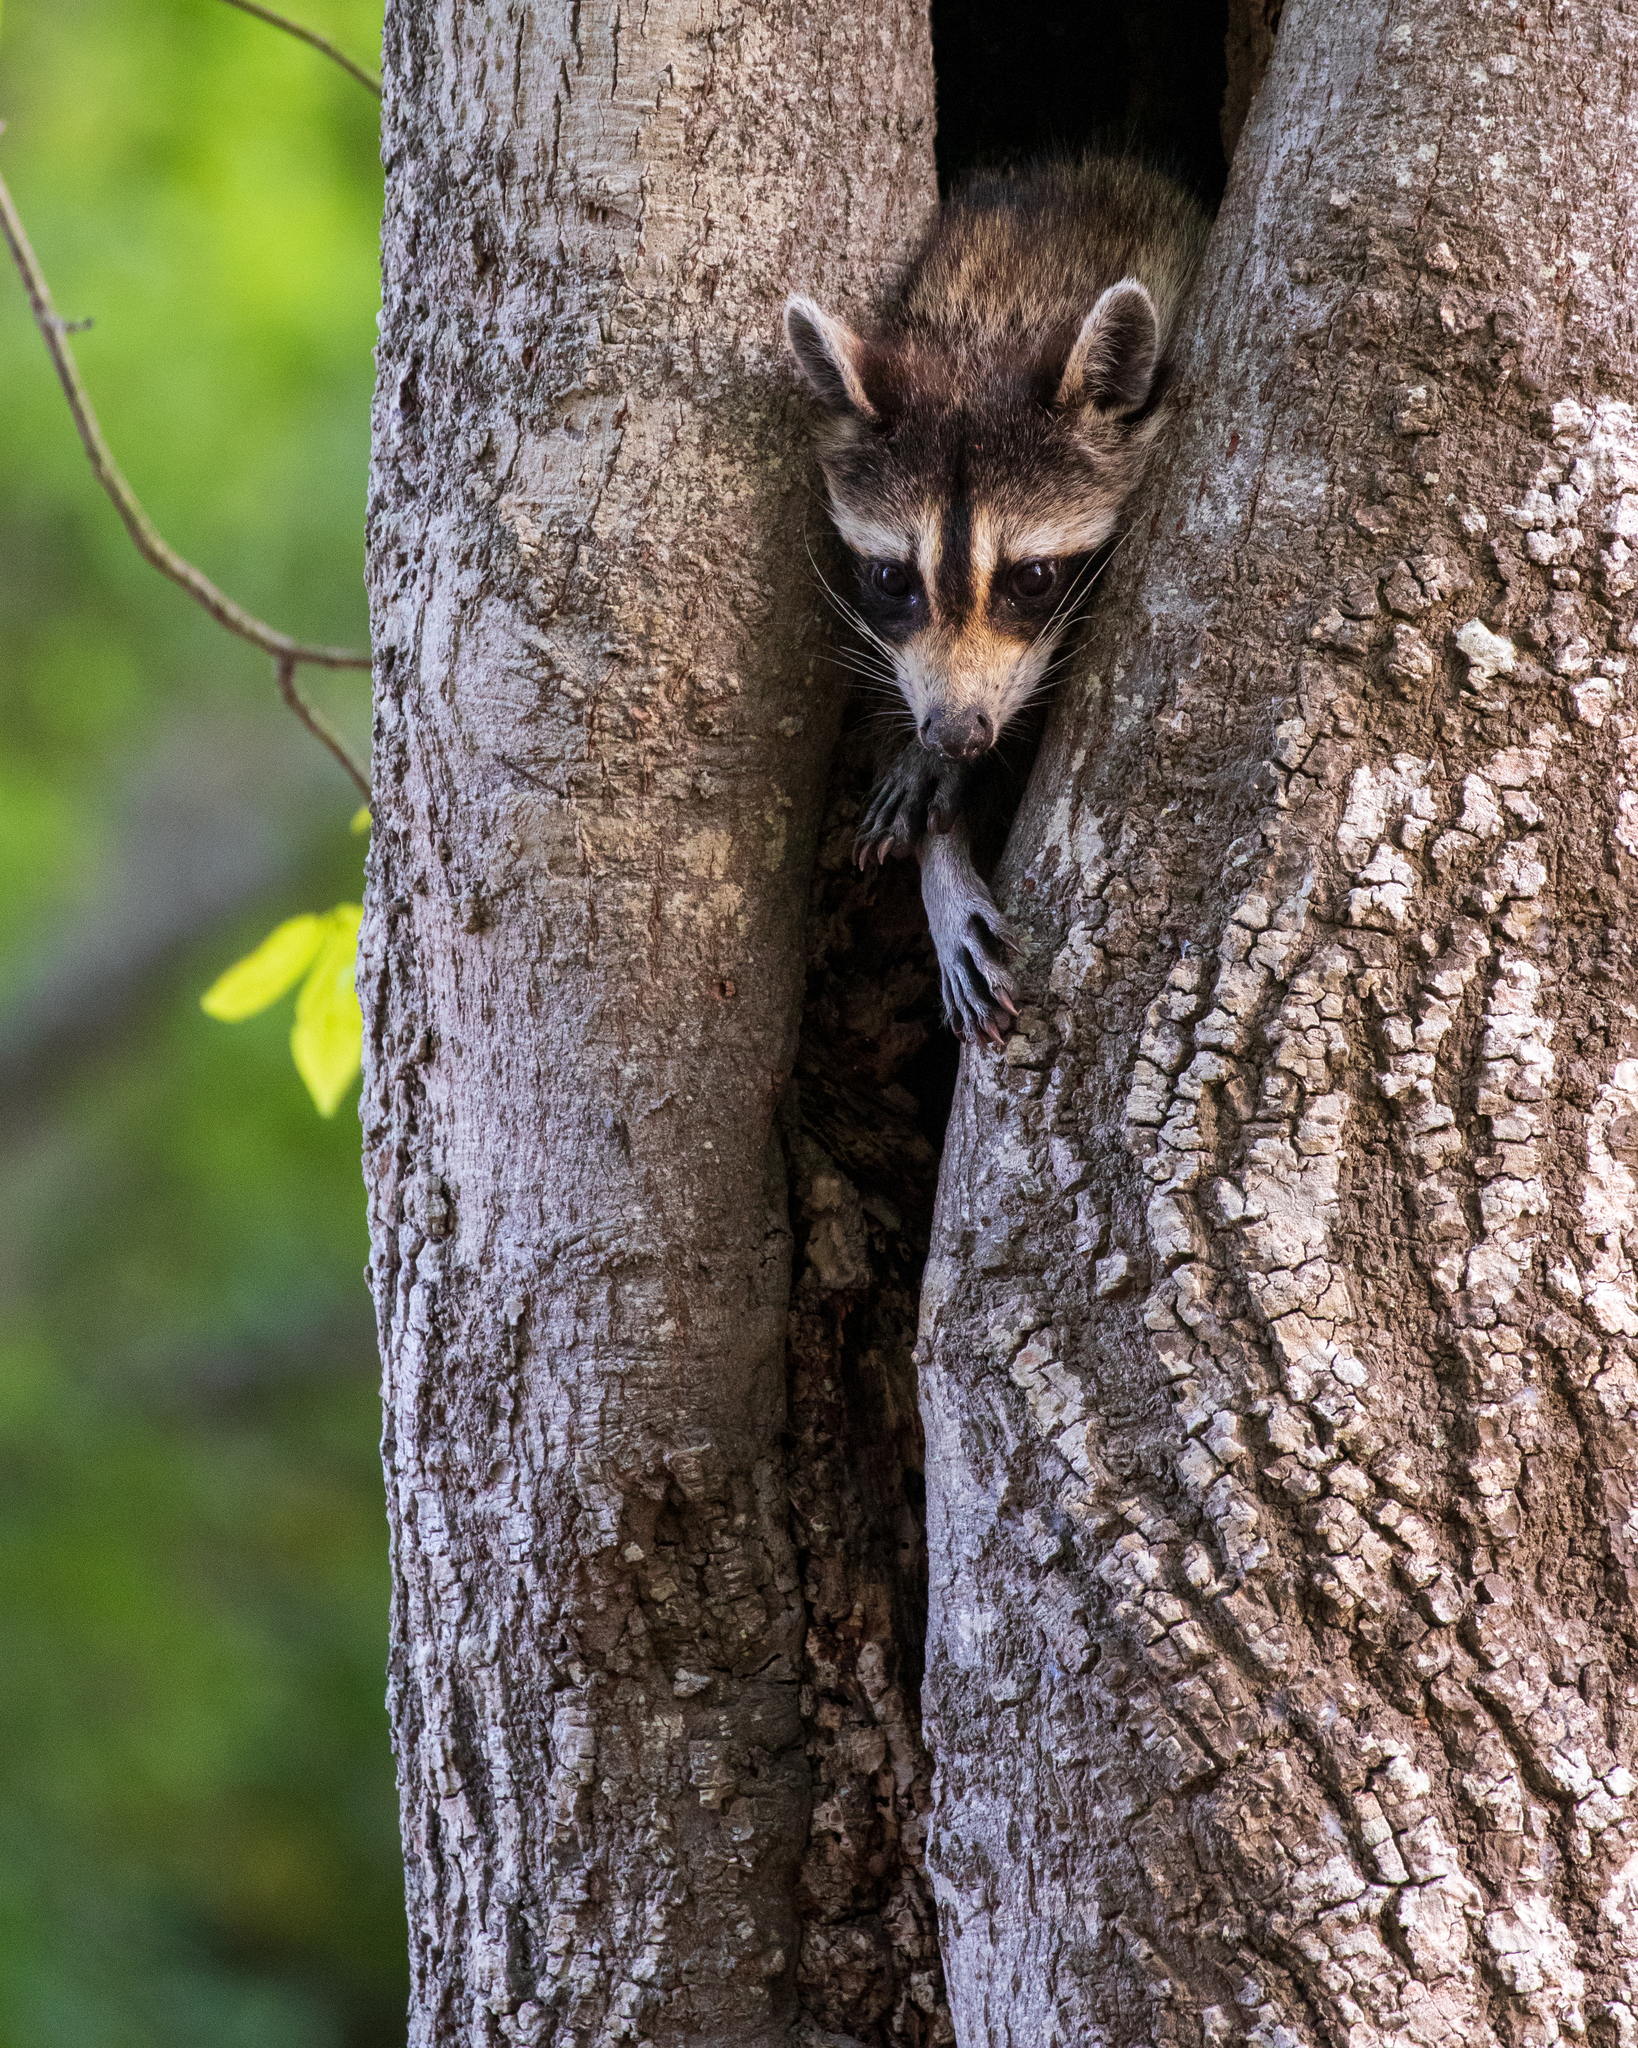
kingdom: Animalia
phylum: Chordata
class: Mammalia
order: Carnivora
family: Procyonidae
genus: Procyon
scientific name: Procyon lotor
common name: Raccoon
